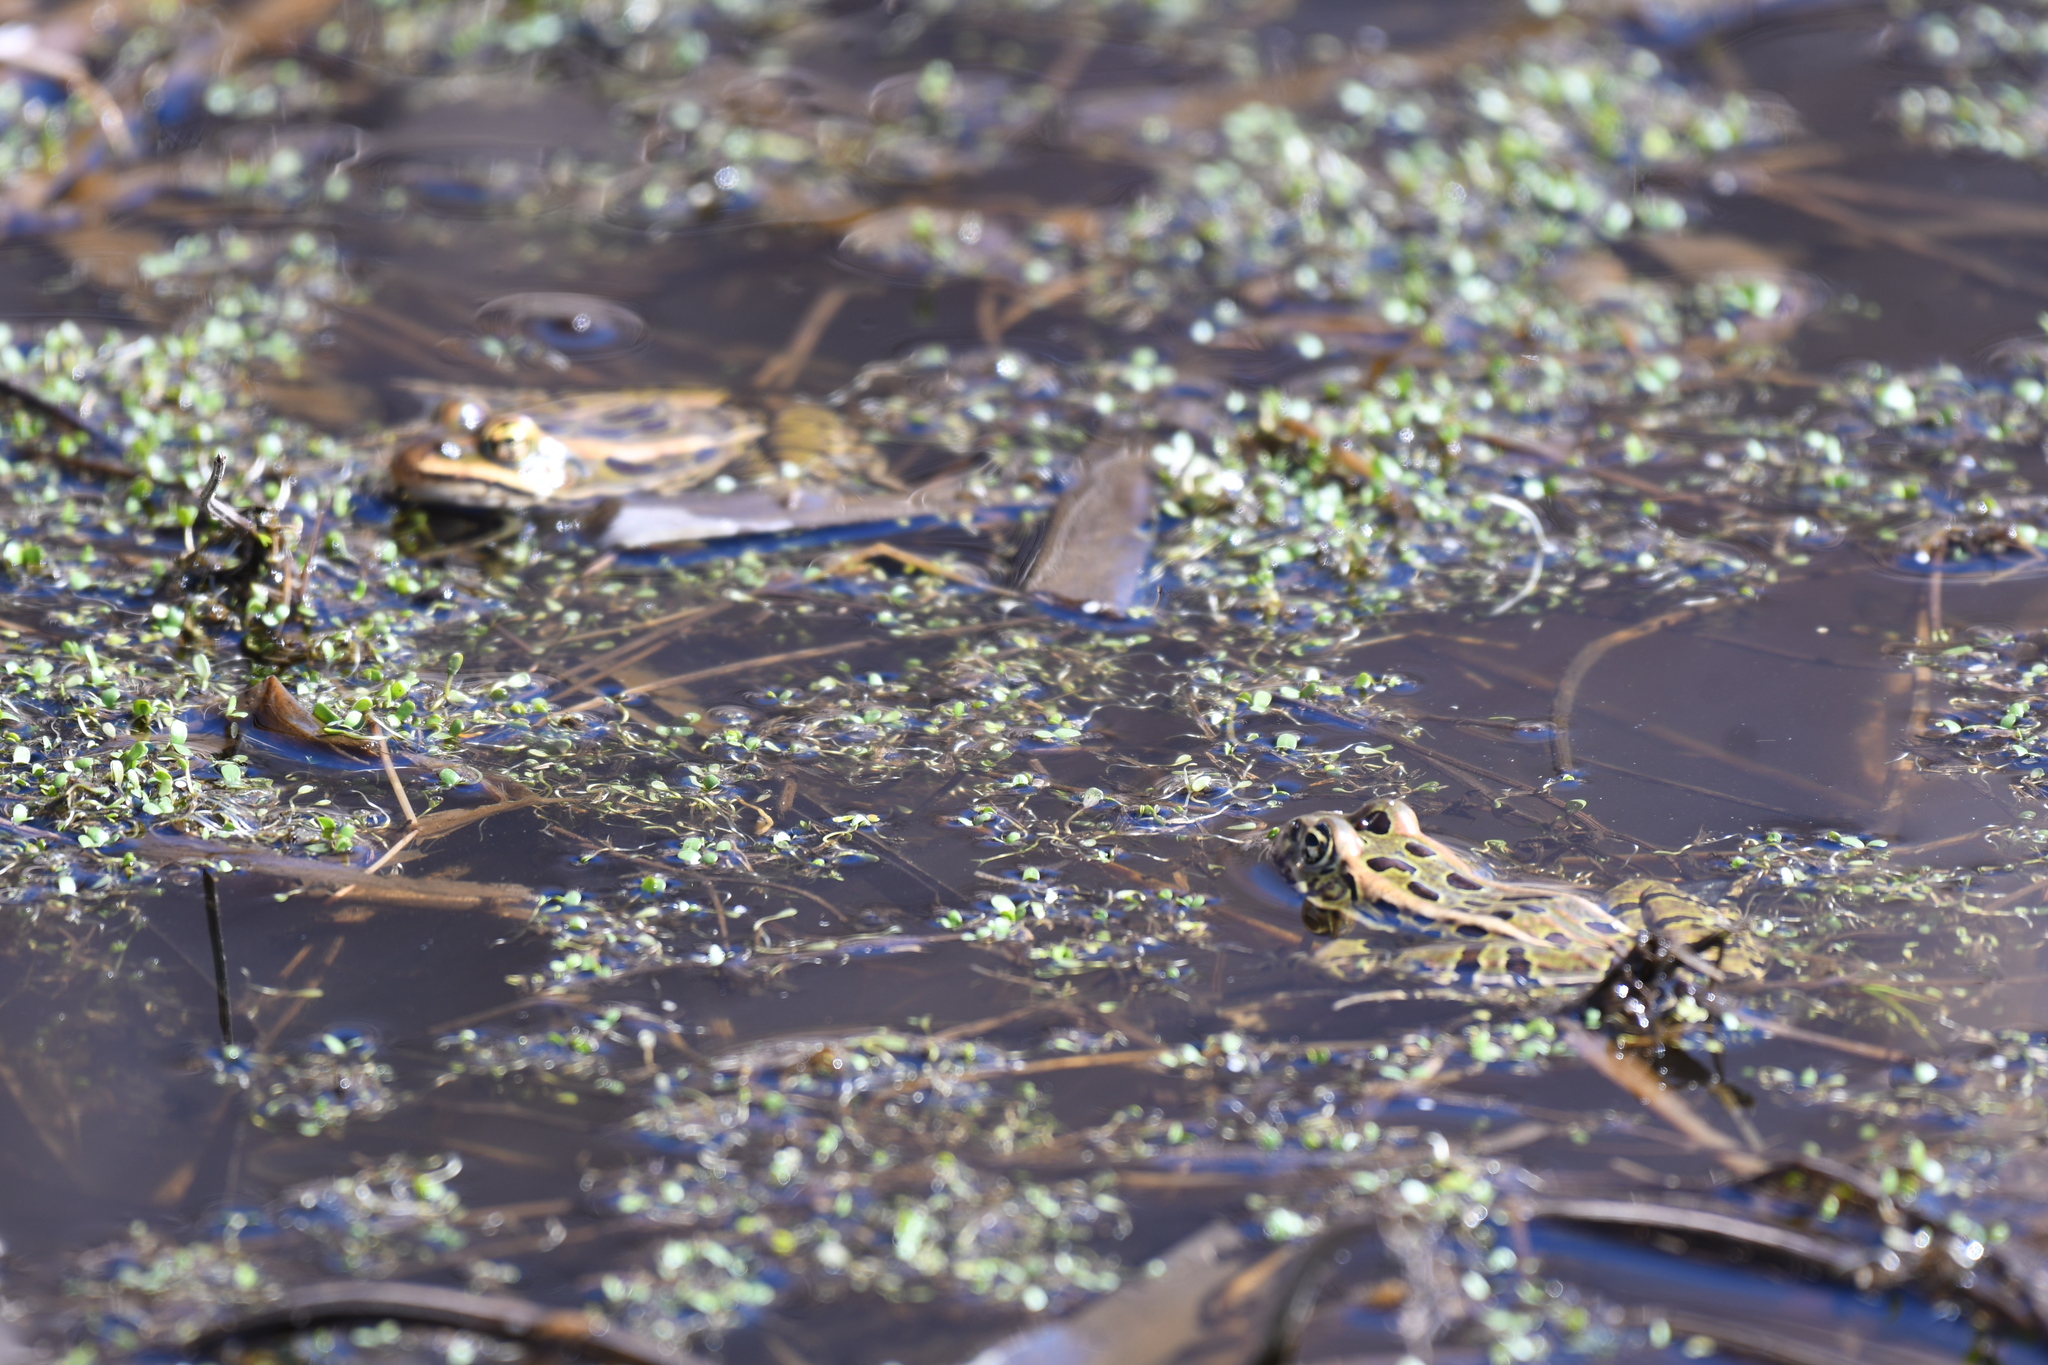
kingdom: Animalia
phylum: Chordata
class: Amphibia
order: Anura
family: Ranidae
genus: Lithobates
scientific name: Lithobates pipiens
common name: Northern leopard frog
